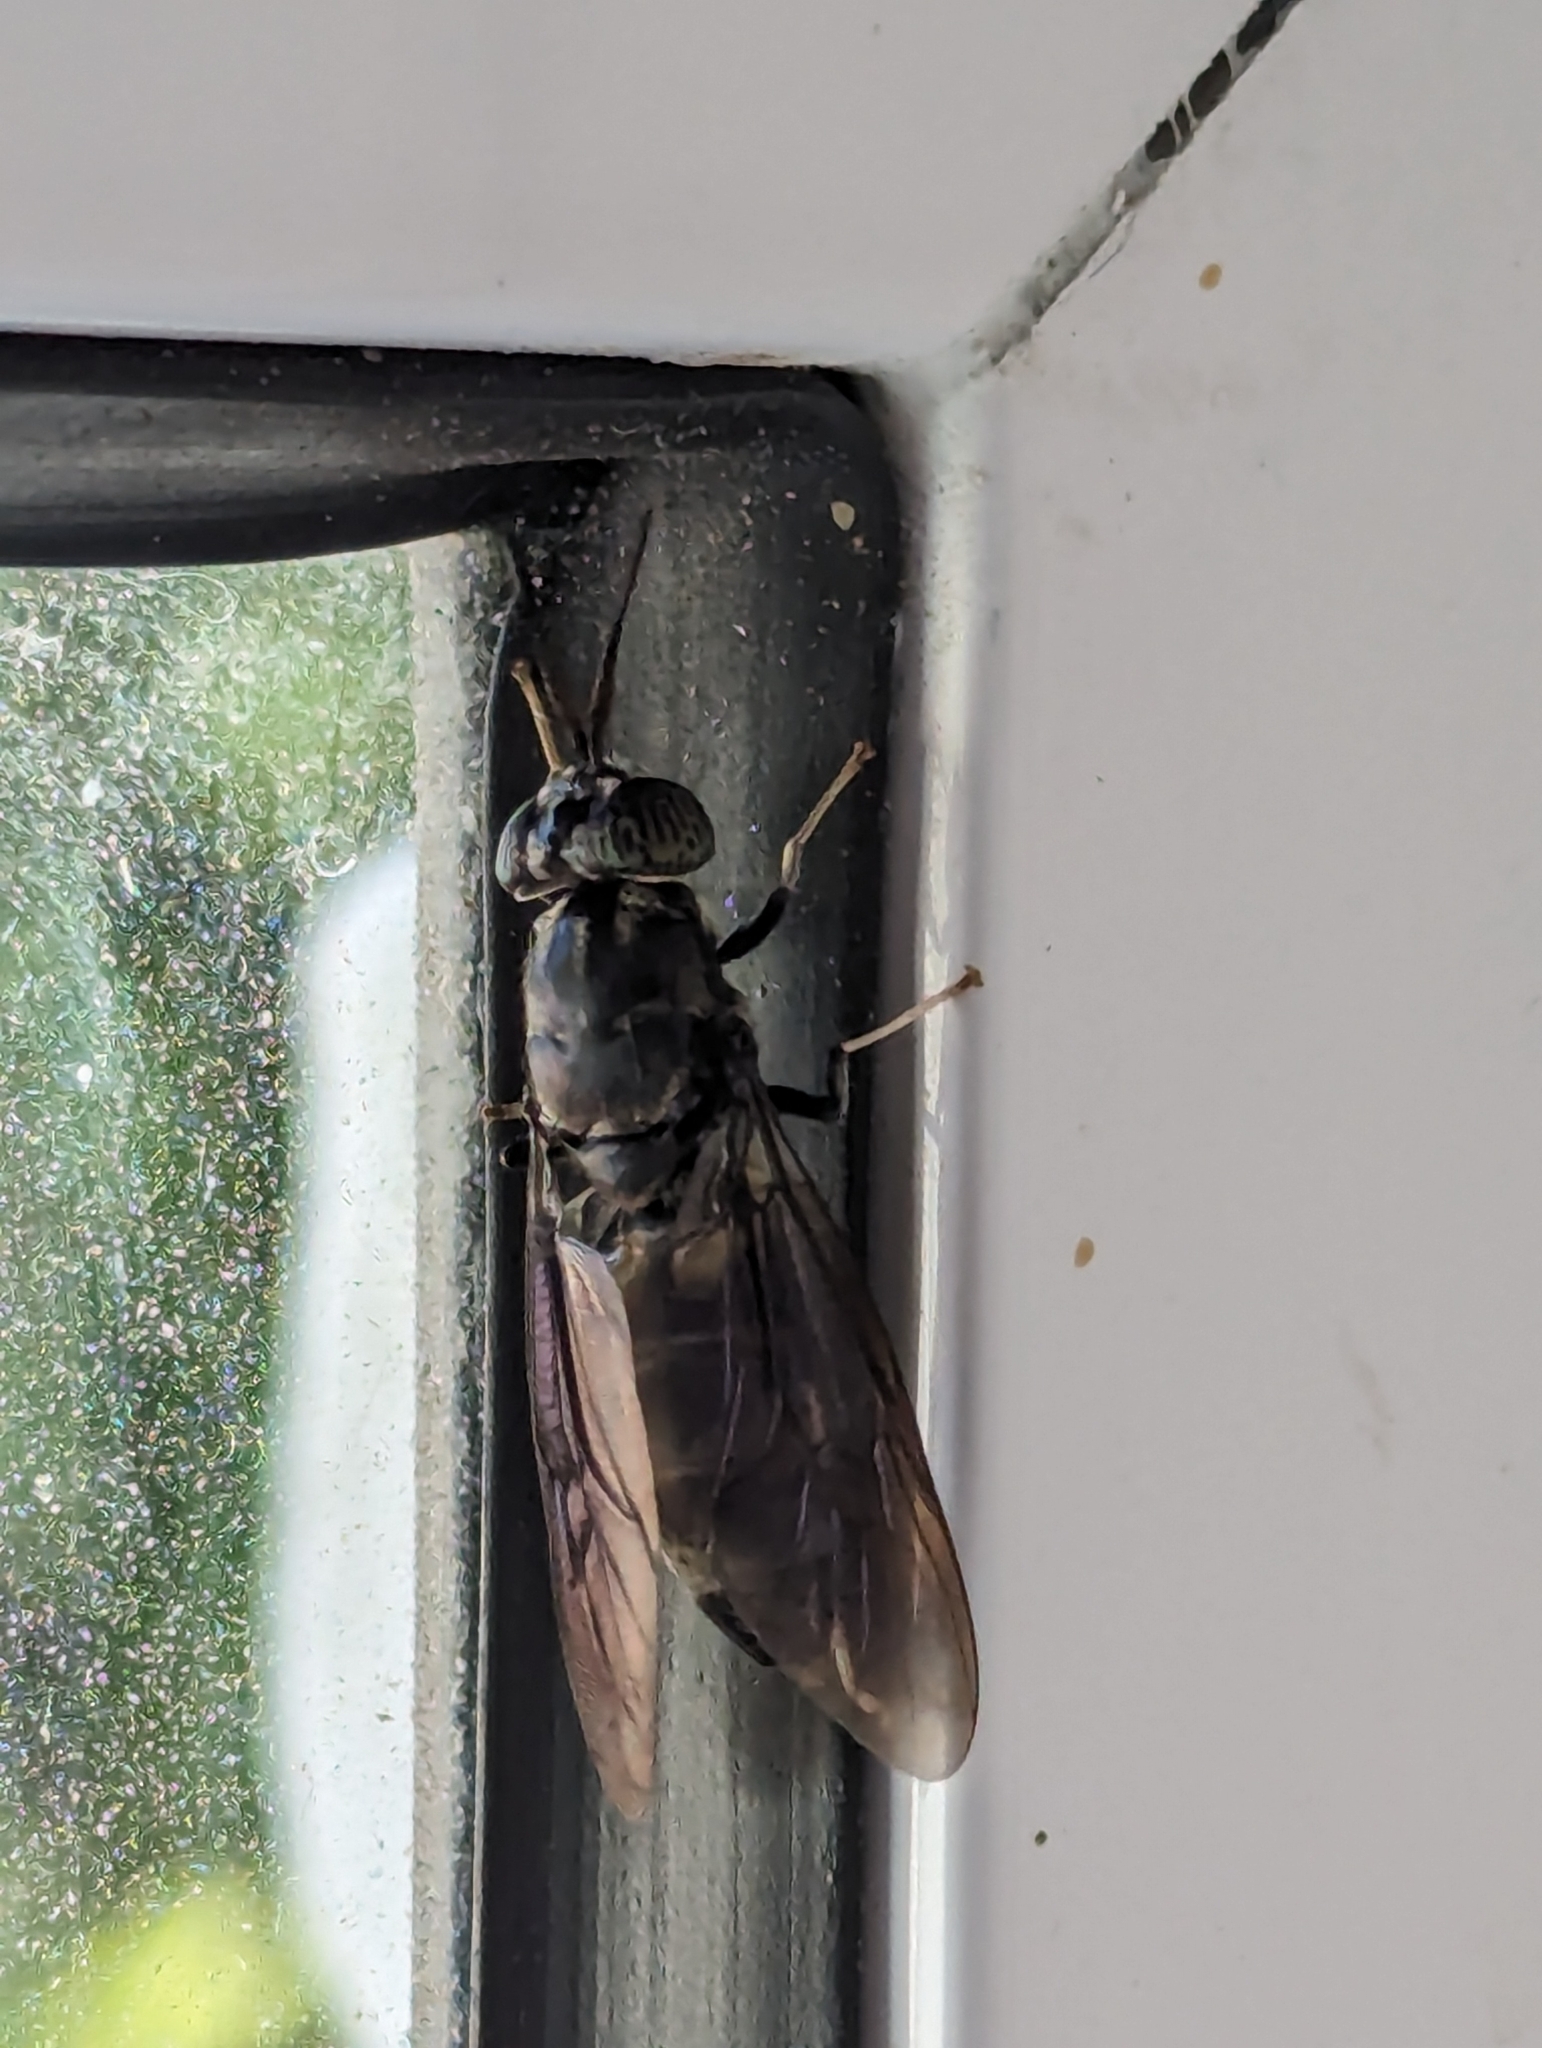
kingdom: Animalia
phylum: Arthropoda
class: Insecta
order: Diptera
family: Stratiomyidae
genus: Hermetia
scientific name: Hermetia illucens
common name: Black soldier fly
